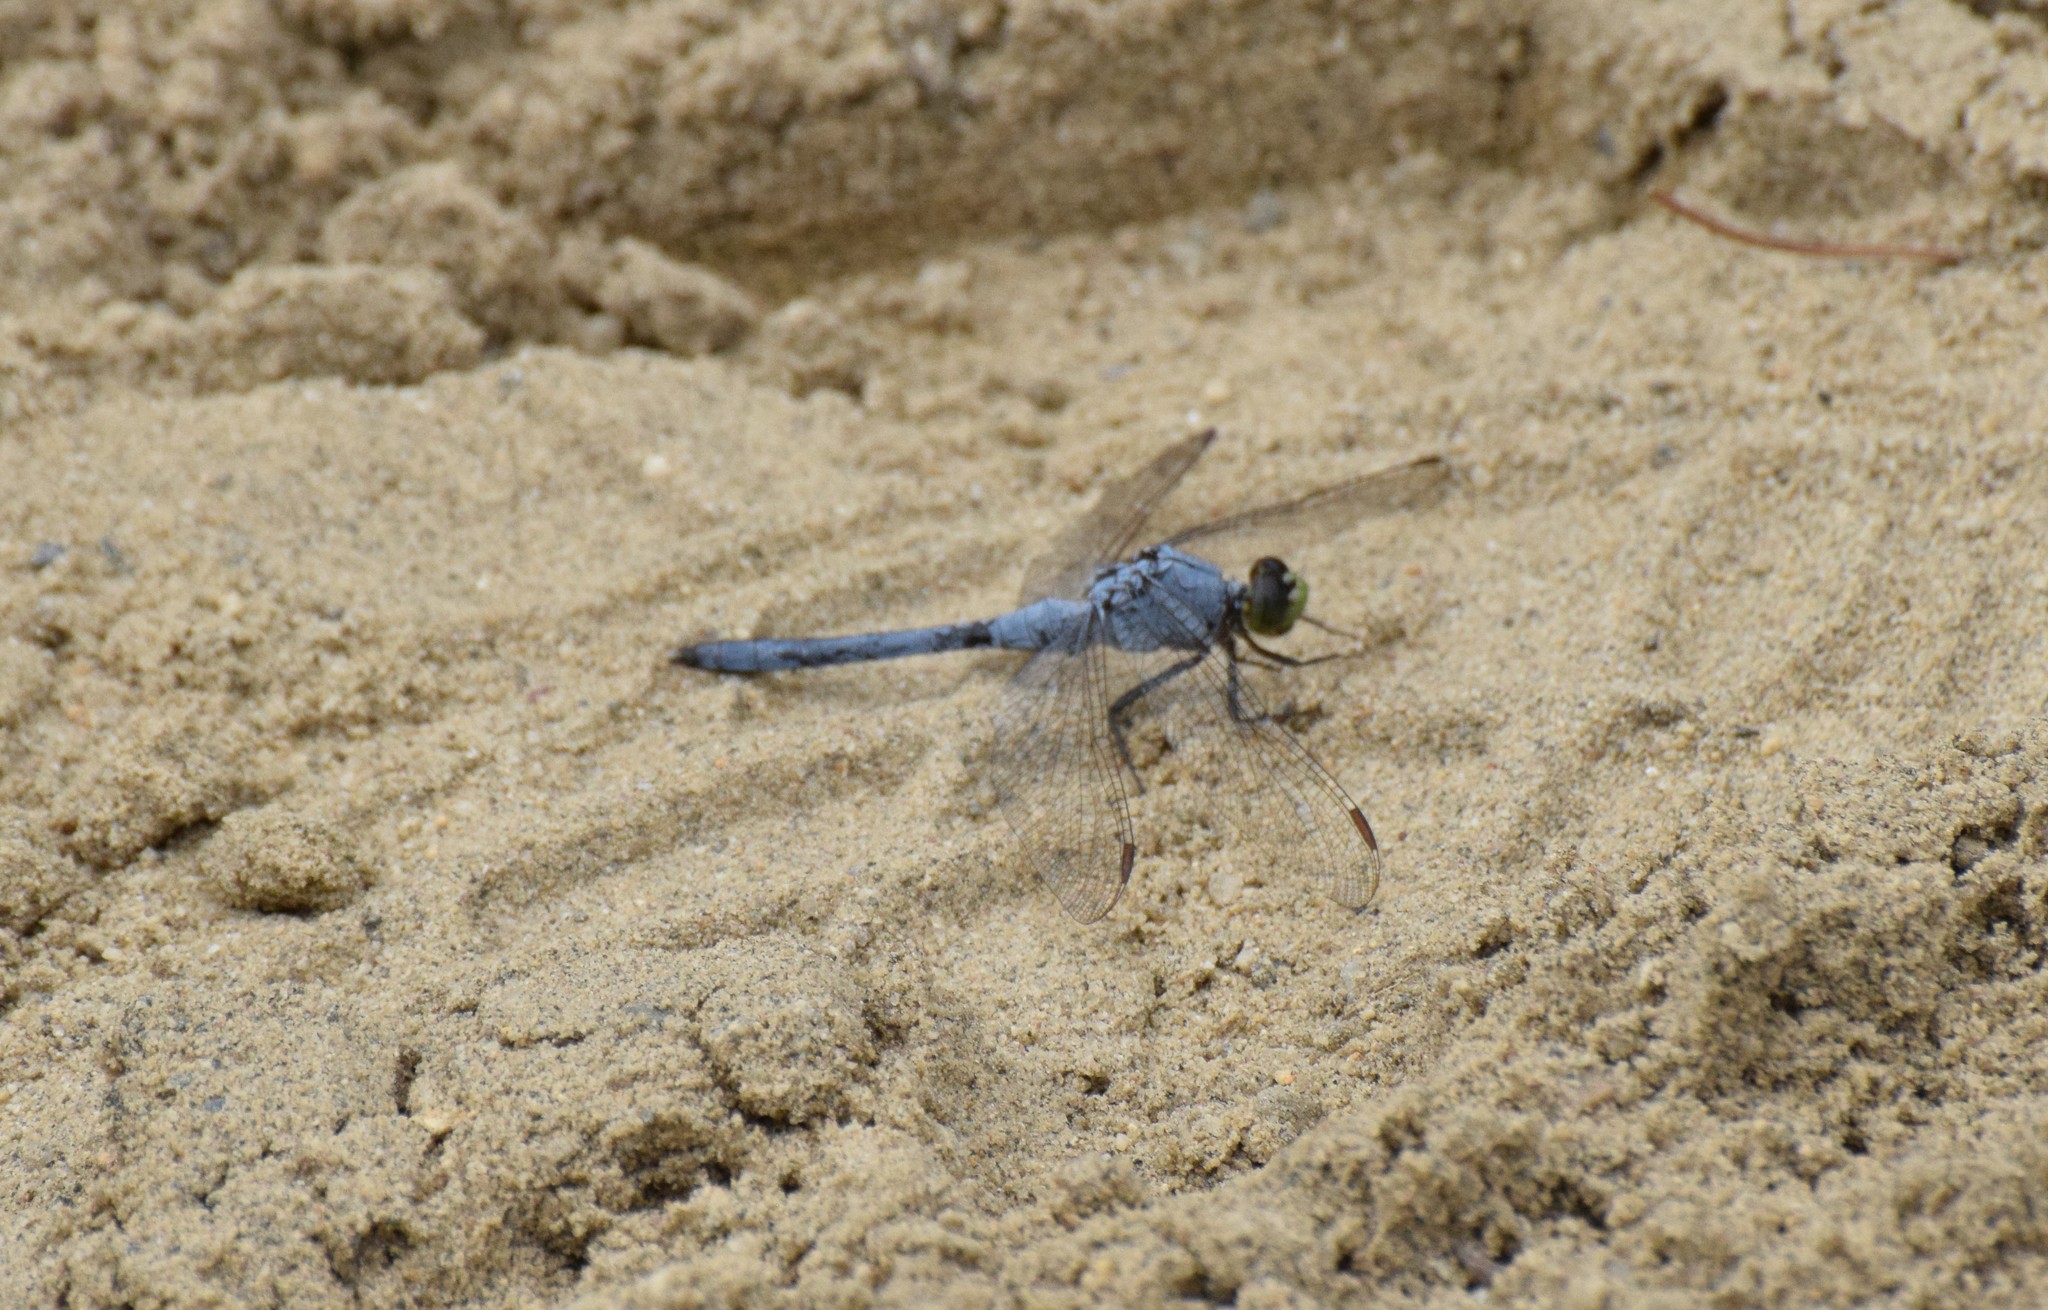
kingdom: Animalia
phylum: Arthropoda
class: Insecta
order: Odonata
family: Libellulidae
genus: Erythemis
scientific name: Erythemis simplicicollis
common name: Eastern pondhawk
